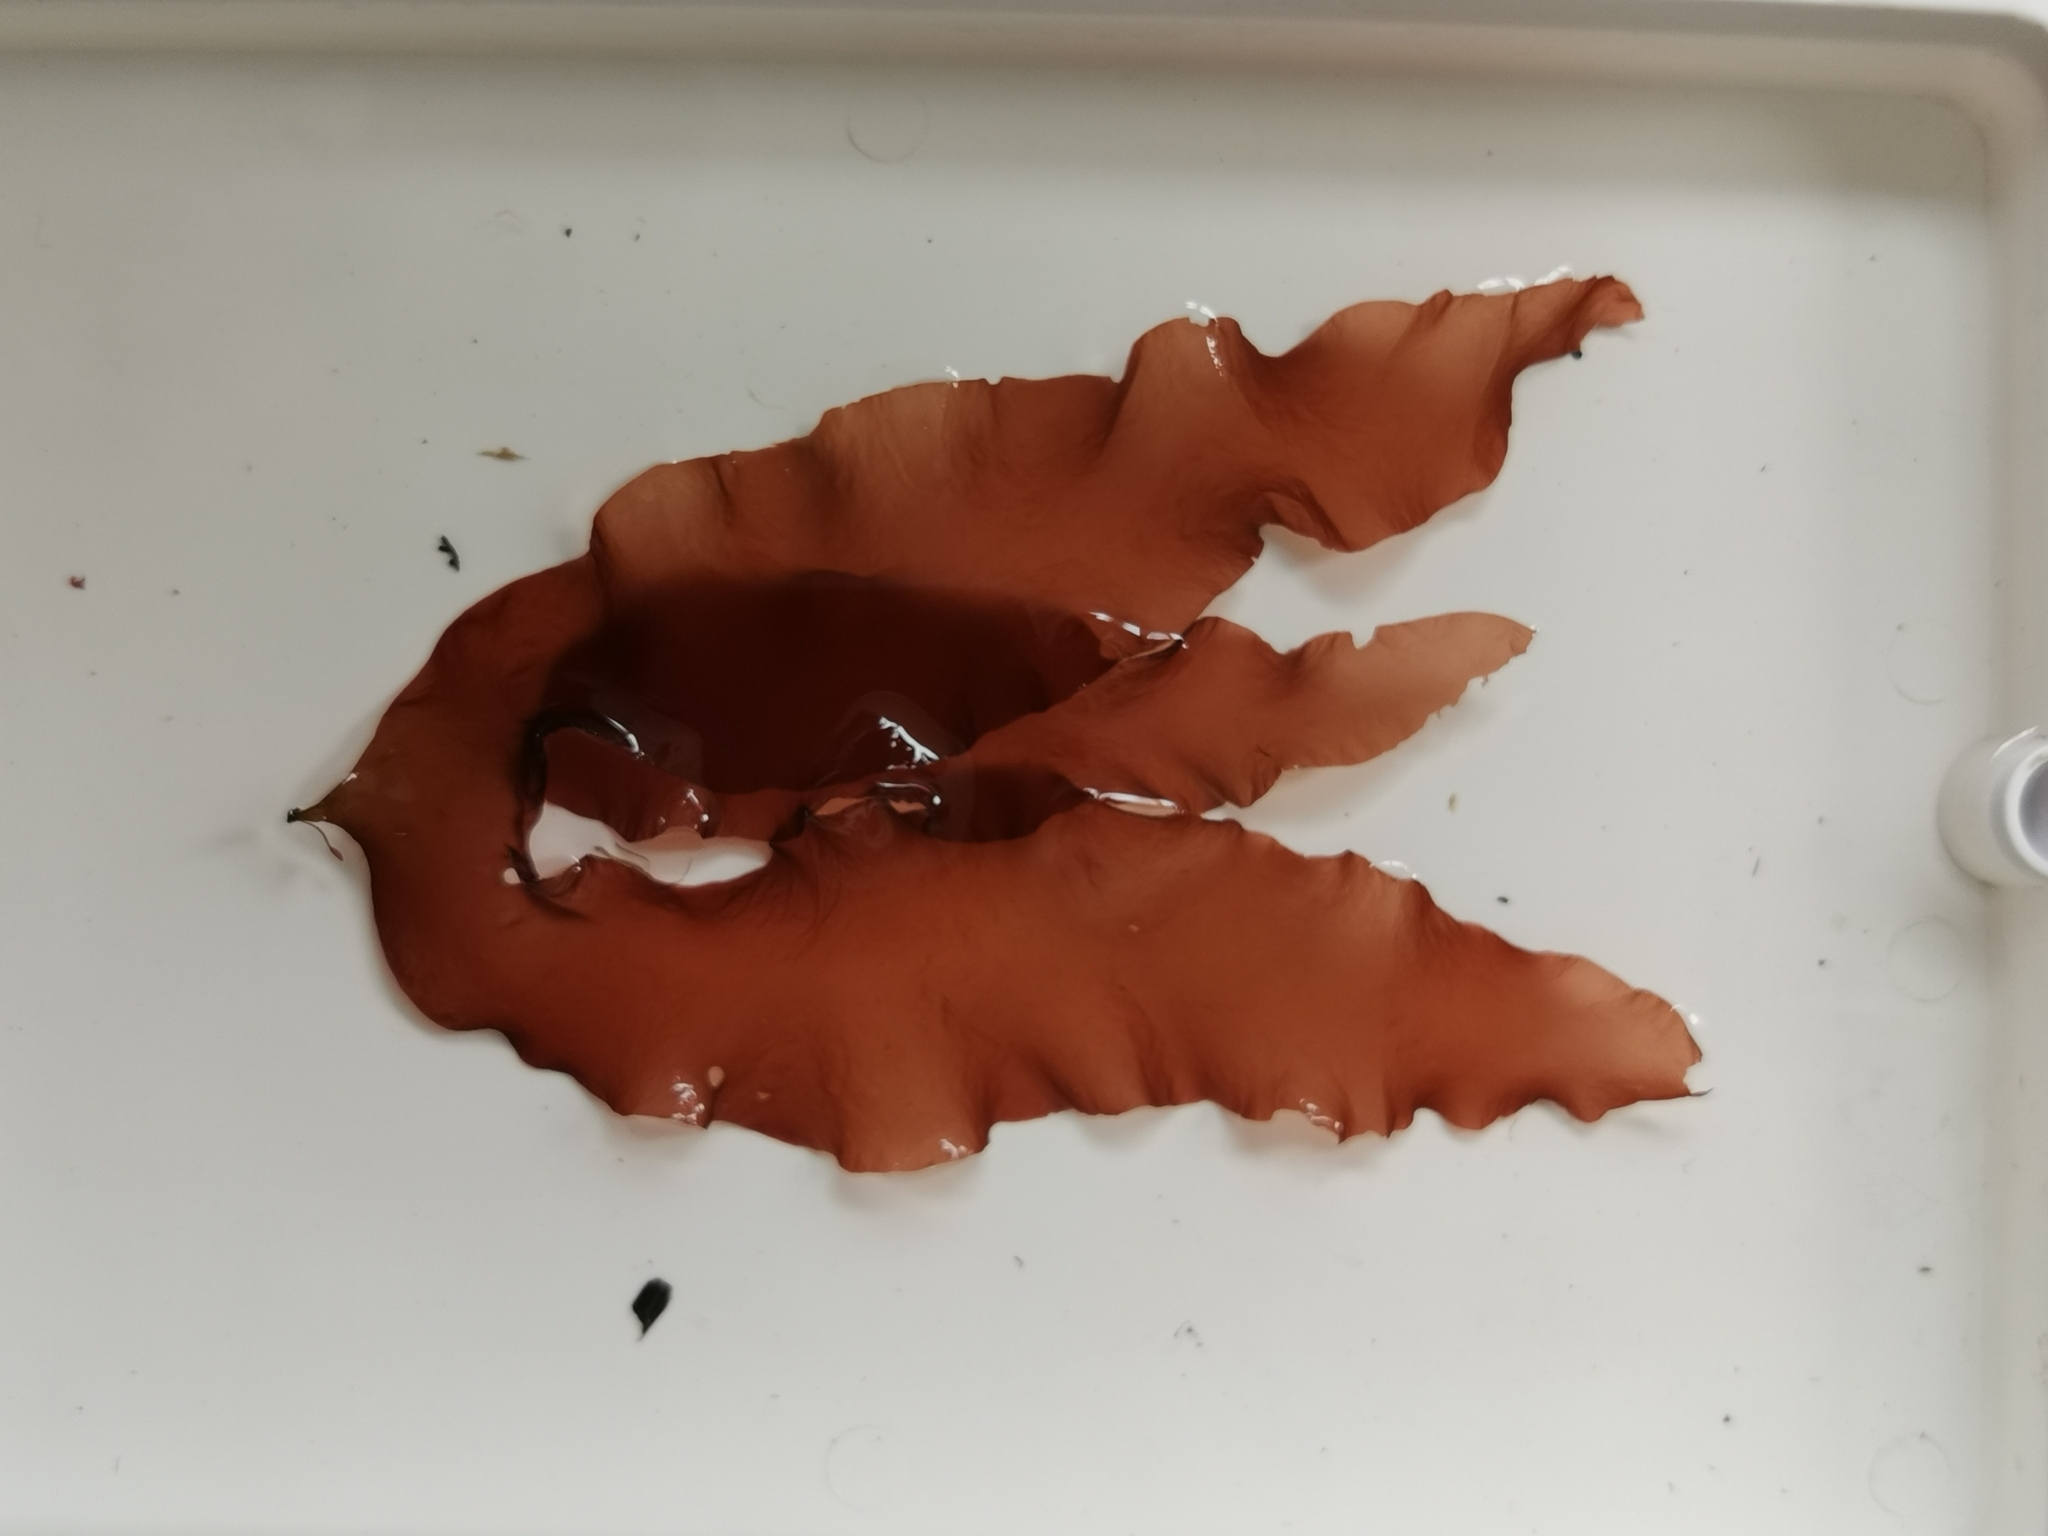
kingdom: Plantae
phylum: Rhodophyta
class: Florideophyceae
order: Halymeniales
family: Halymeniaceae
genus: Grateloupia
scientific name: Grateloupia turuturu
